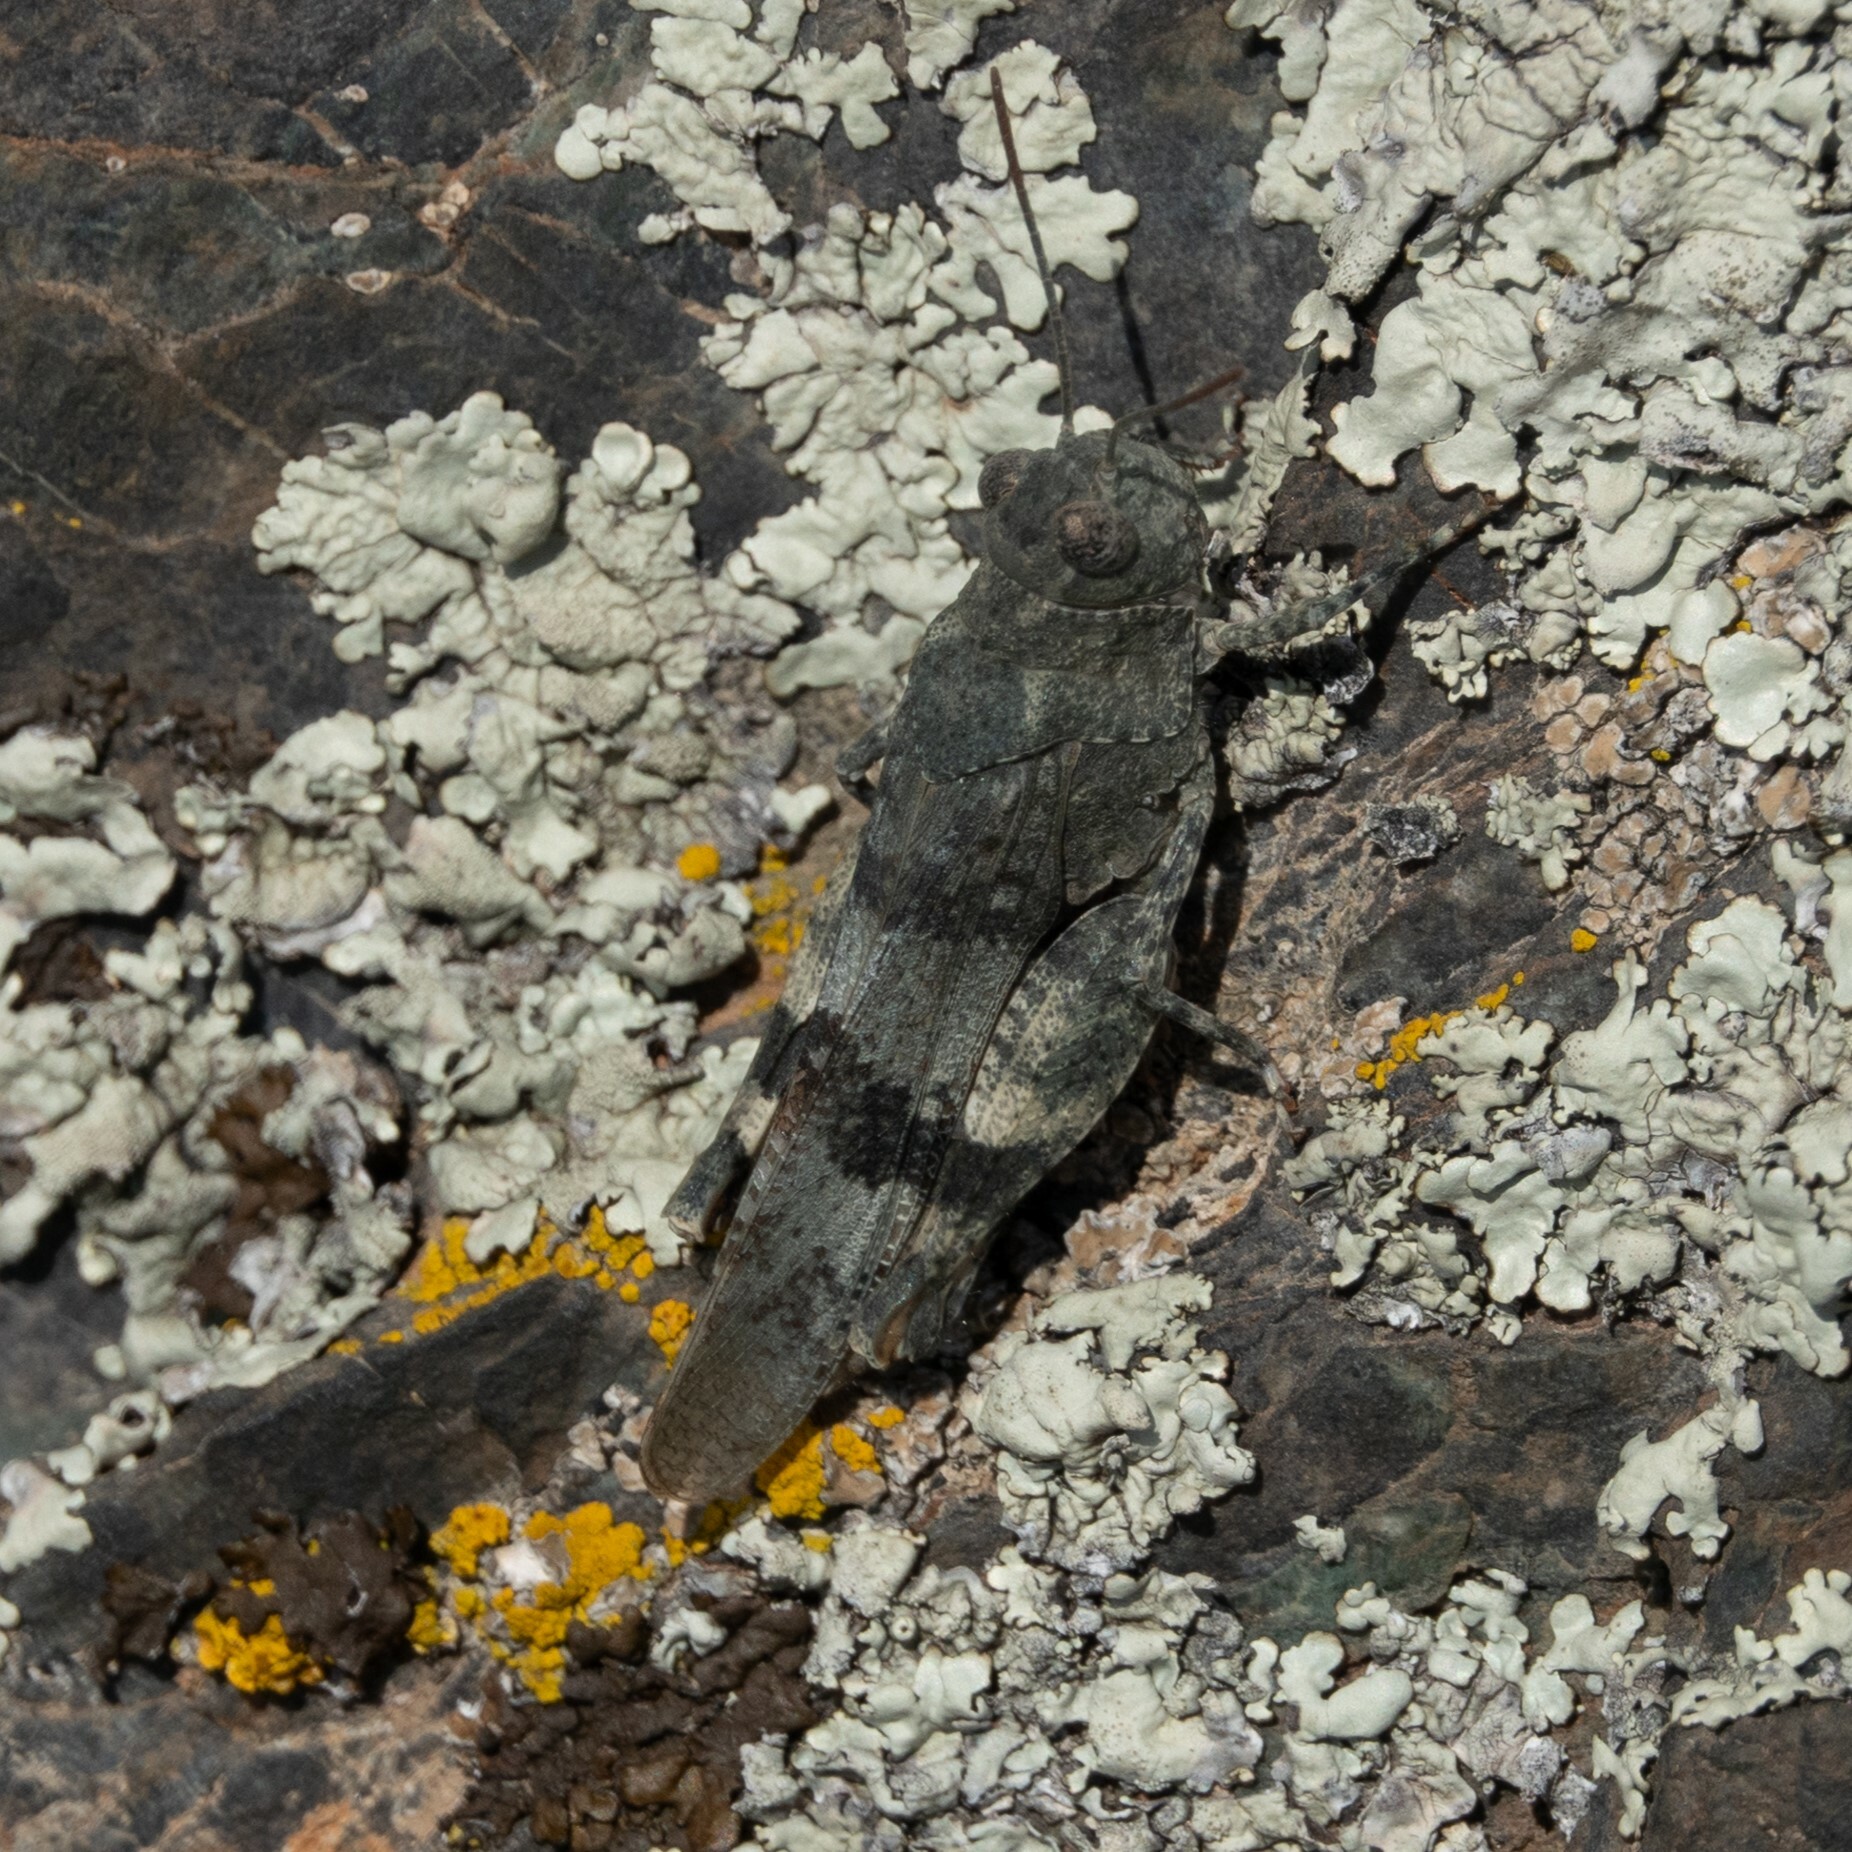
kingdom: Animalia
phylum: Arthropoda
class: Insecta
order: Orthoptera
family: Acrididae
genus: Oedipoda
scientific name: Oedipoda germanica
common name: Red band-winged grasshopper
